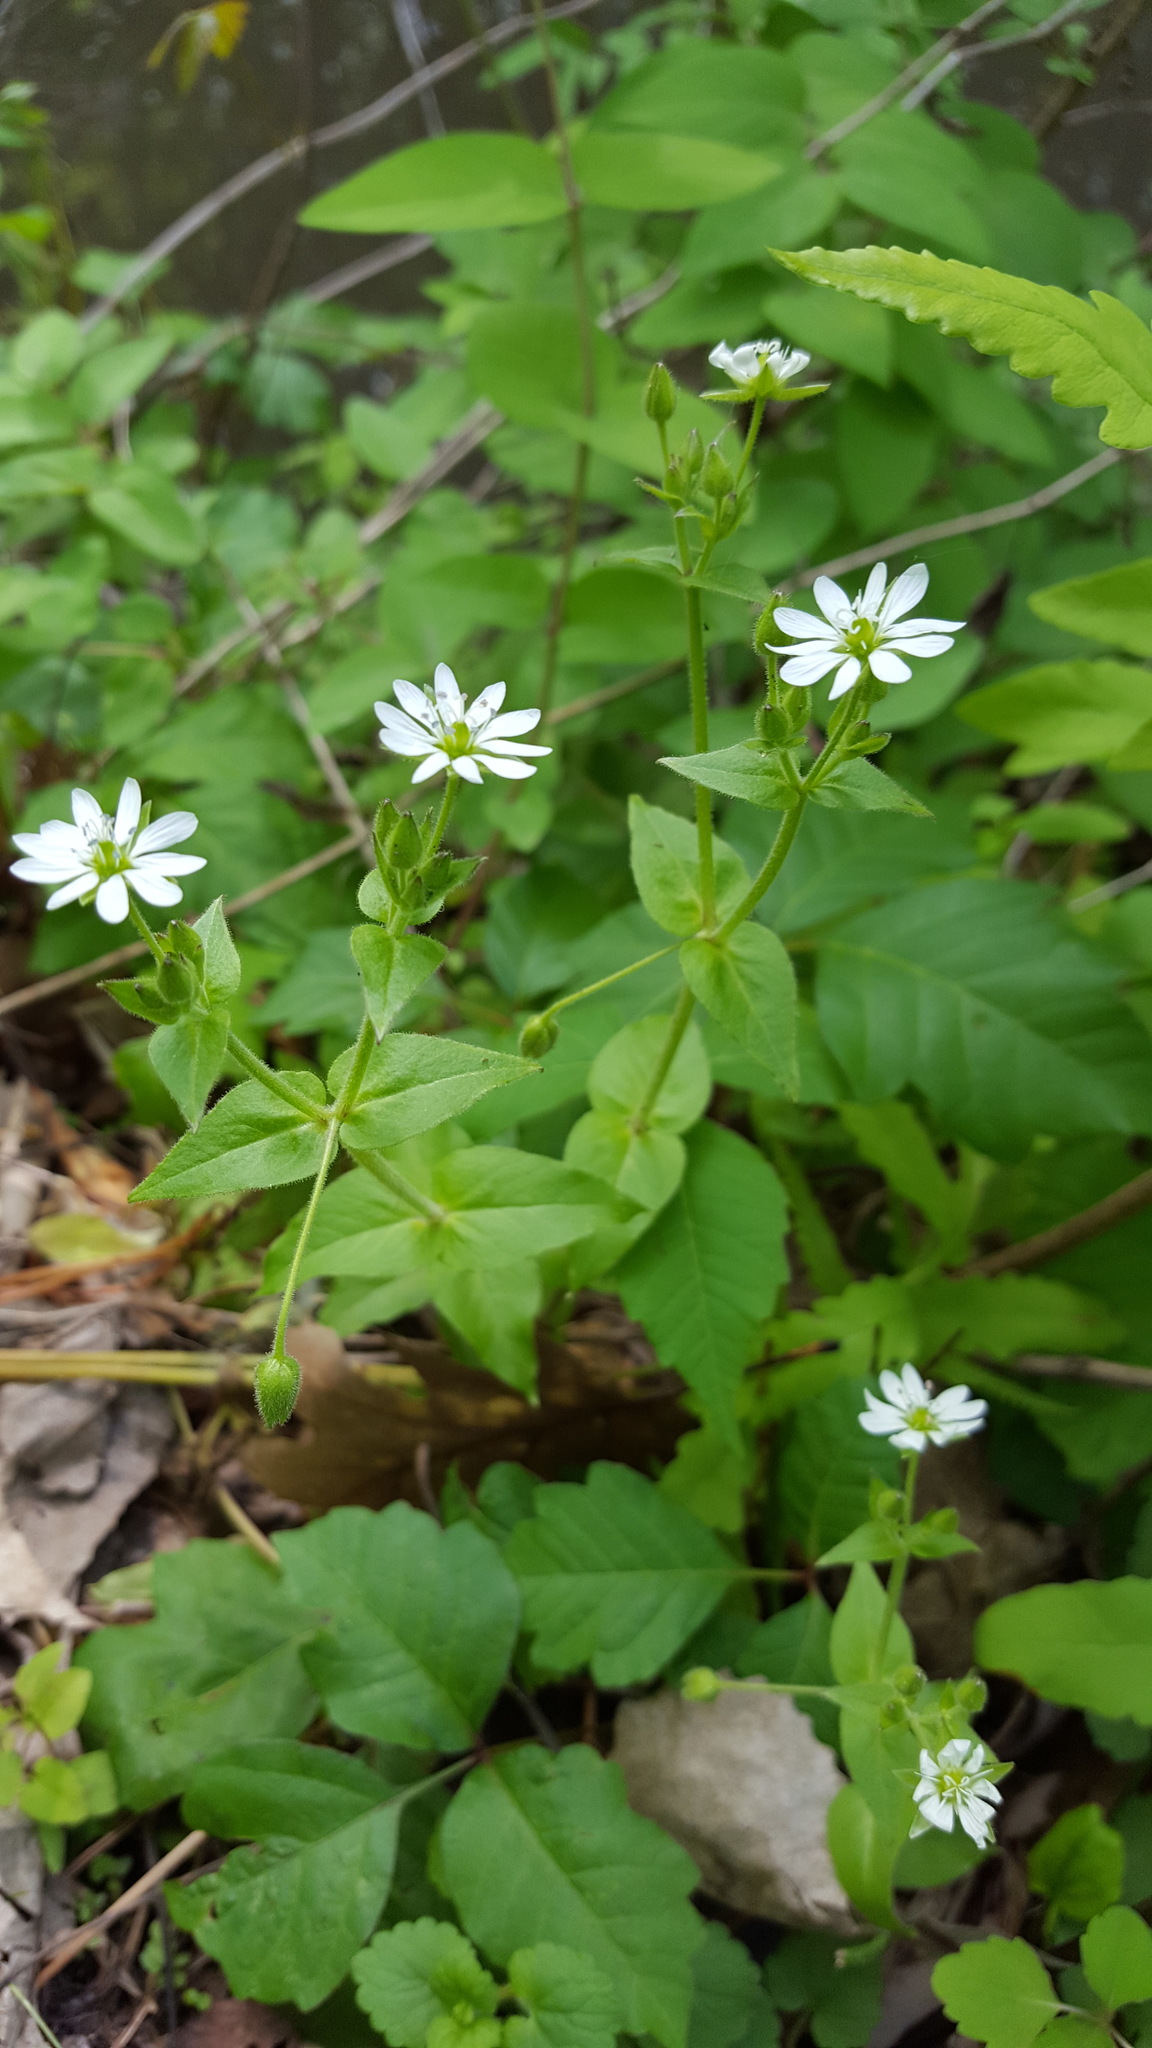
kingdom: Plantae
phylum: Tracheophyta
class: Magnoliopsida
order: Caryophyllales
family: Caryophyllaceae
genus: Stellaria
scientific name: Stellaria aquatica
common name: Water chickweed
